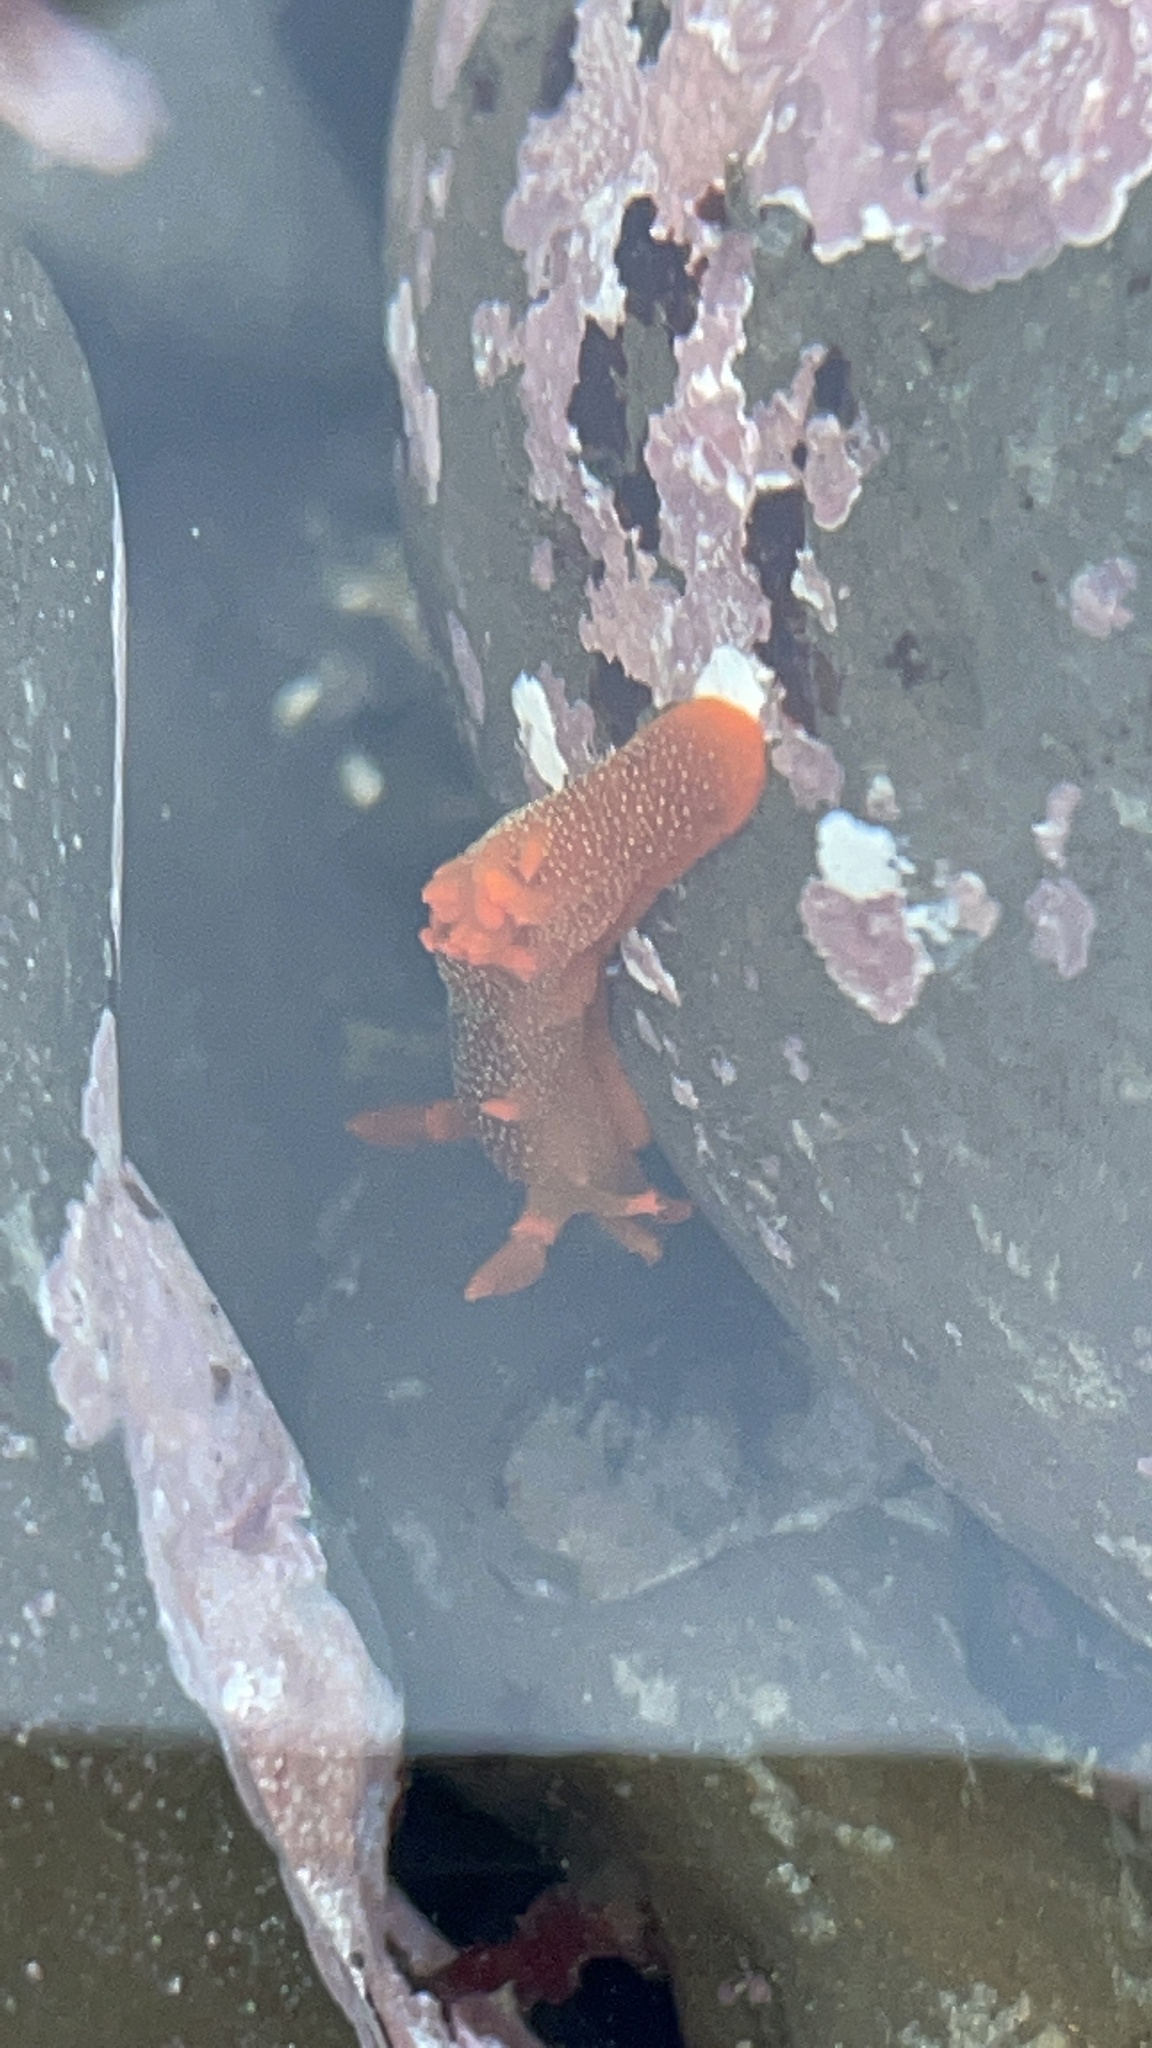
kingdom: Animalia
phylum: Mollusca
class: Gastropoda
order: Nudibranchia
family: Polyceridae
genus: Triopha
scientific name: Triopha maculata
